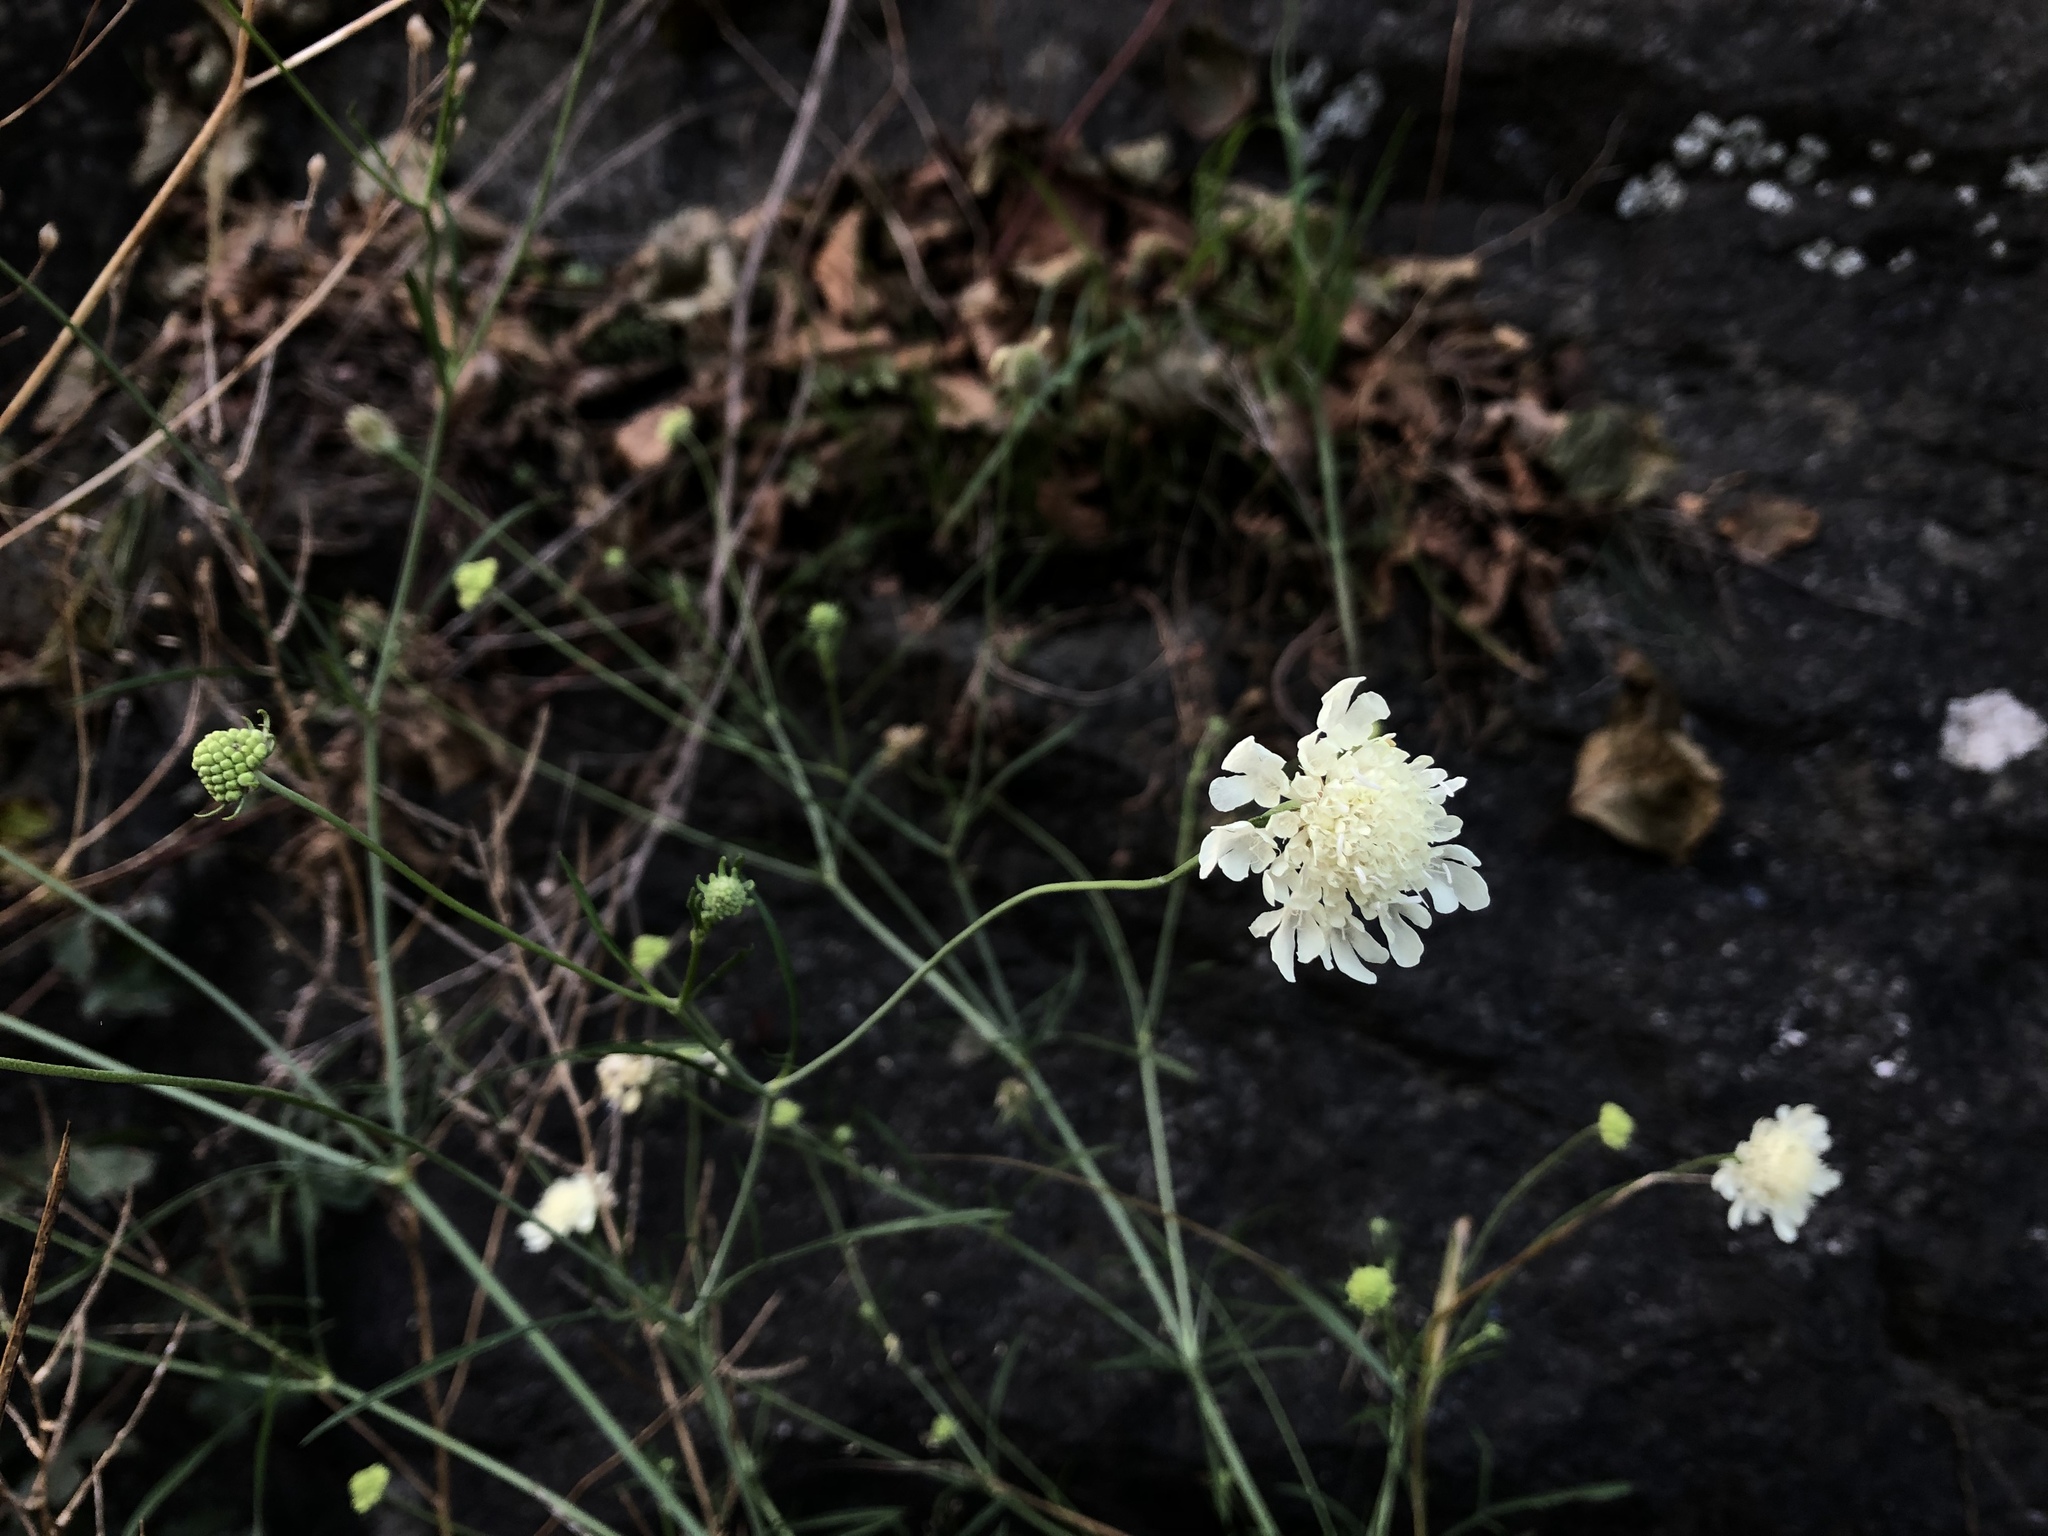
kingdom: Plantae
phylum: Tracheophyta
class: Magnoliopsida
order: Dipsacales
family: Caprifoliaceae
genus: Scabiosa
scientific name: Scabiosa ochroleuca
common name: Cream pincushions
